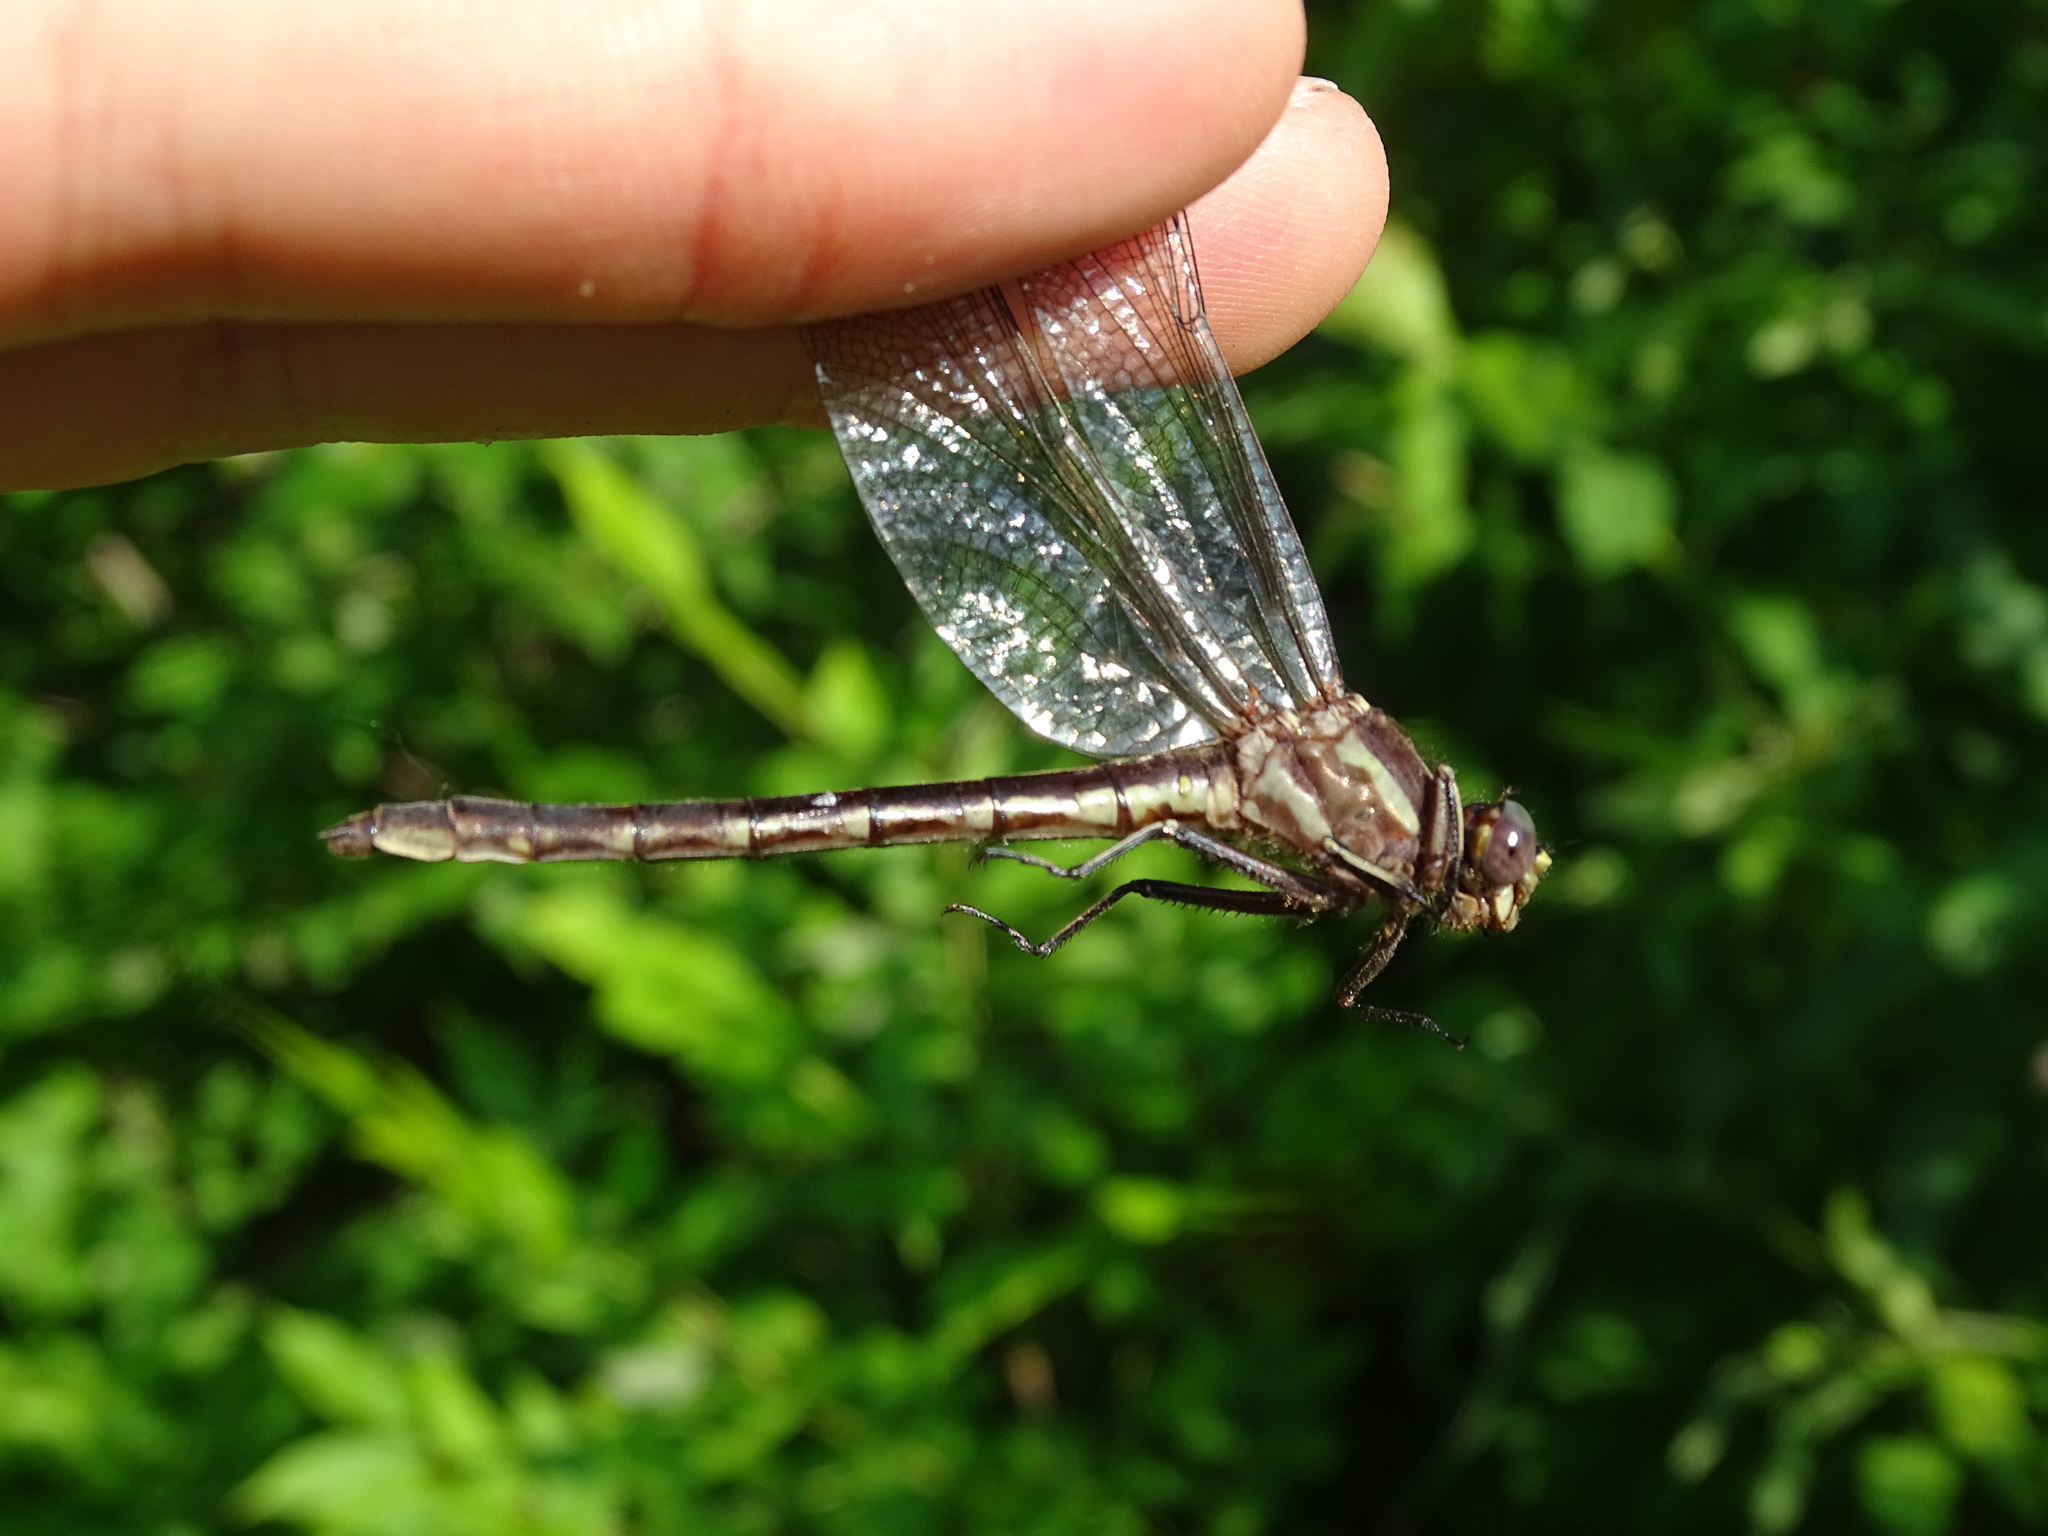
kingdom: Animalia
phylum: Arthropoda
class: Insecta
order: Odonata
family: Gomphidae
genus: Phanogomphus
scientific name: Phanogomphus lividus
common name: Ashy clubtail
